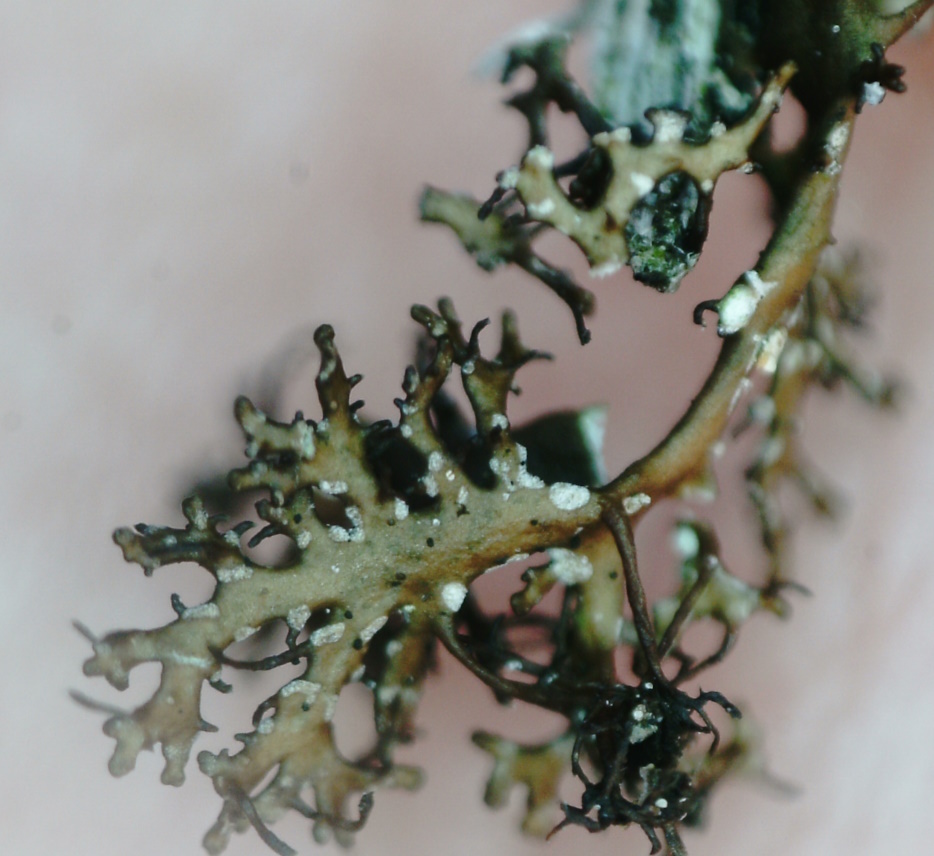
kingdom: Fungi
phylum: Ascomycota
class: Lecanoromycetes
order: Lecanorales
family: Parmeliaceae
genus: Cetraria
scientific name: Cetraria odontella
